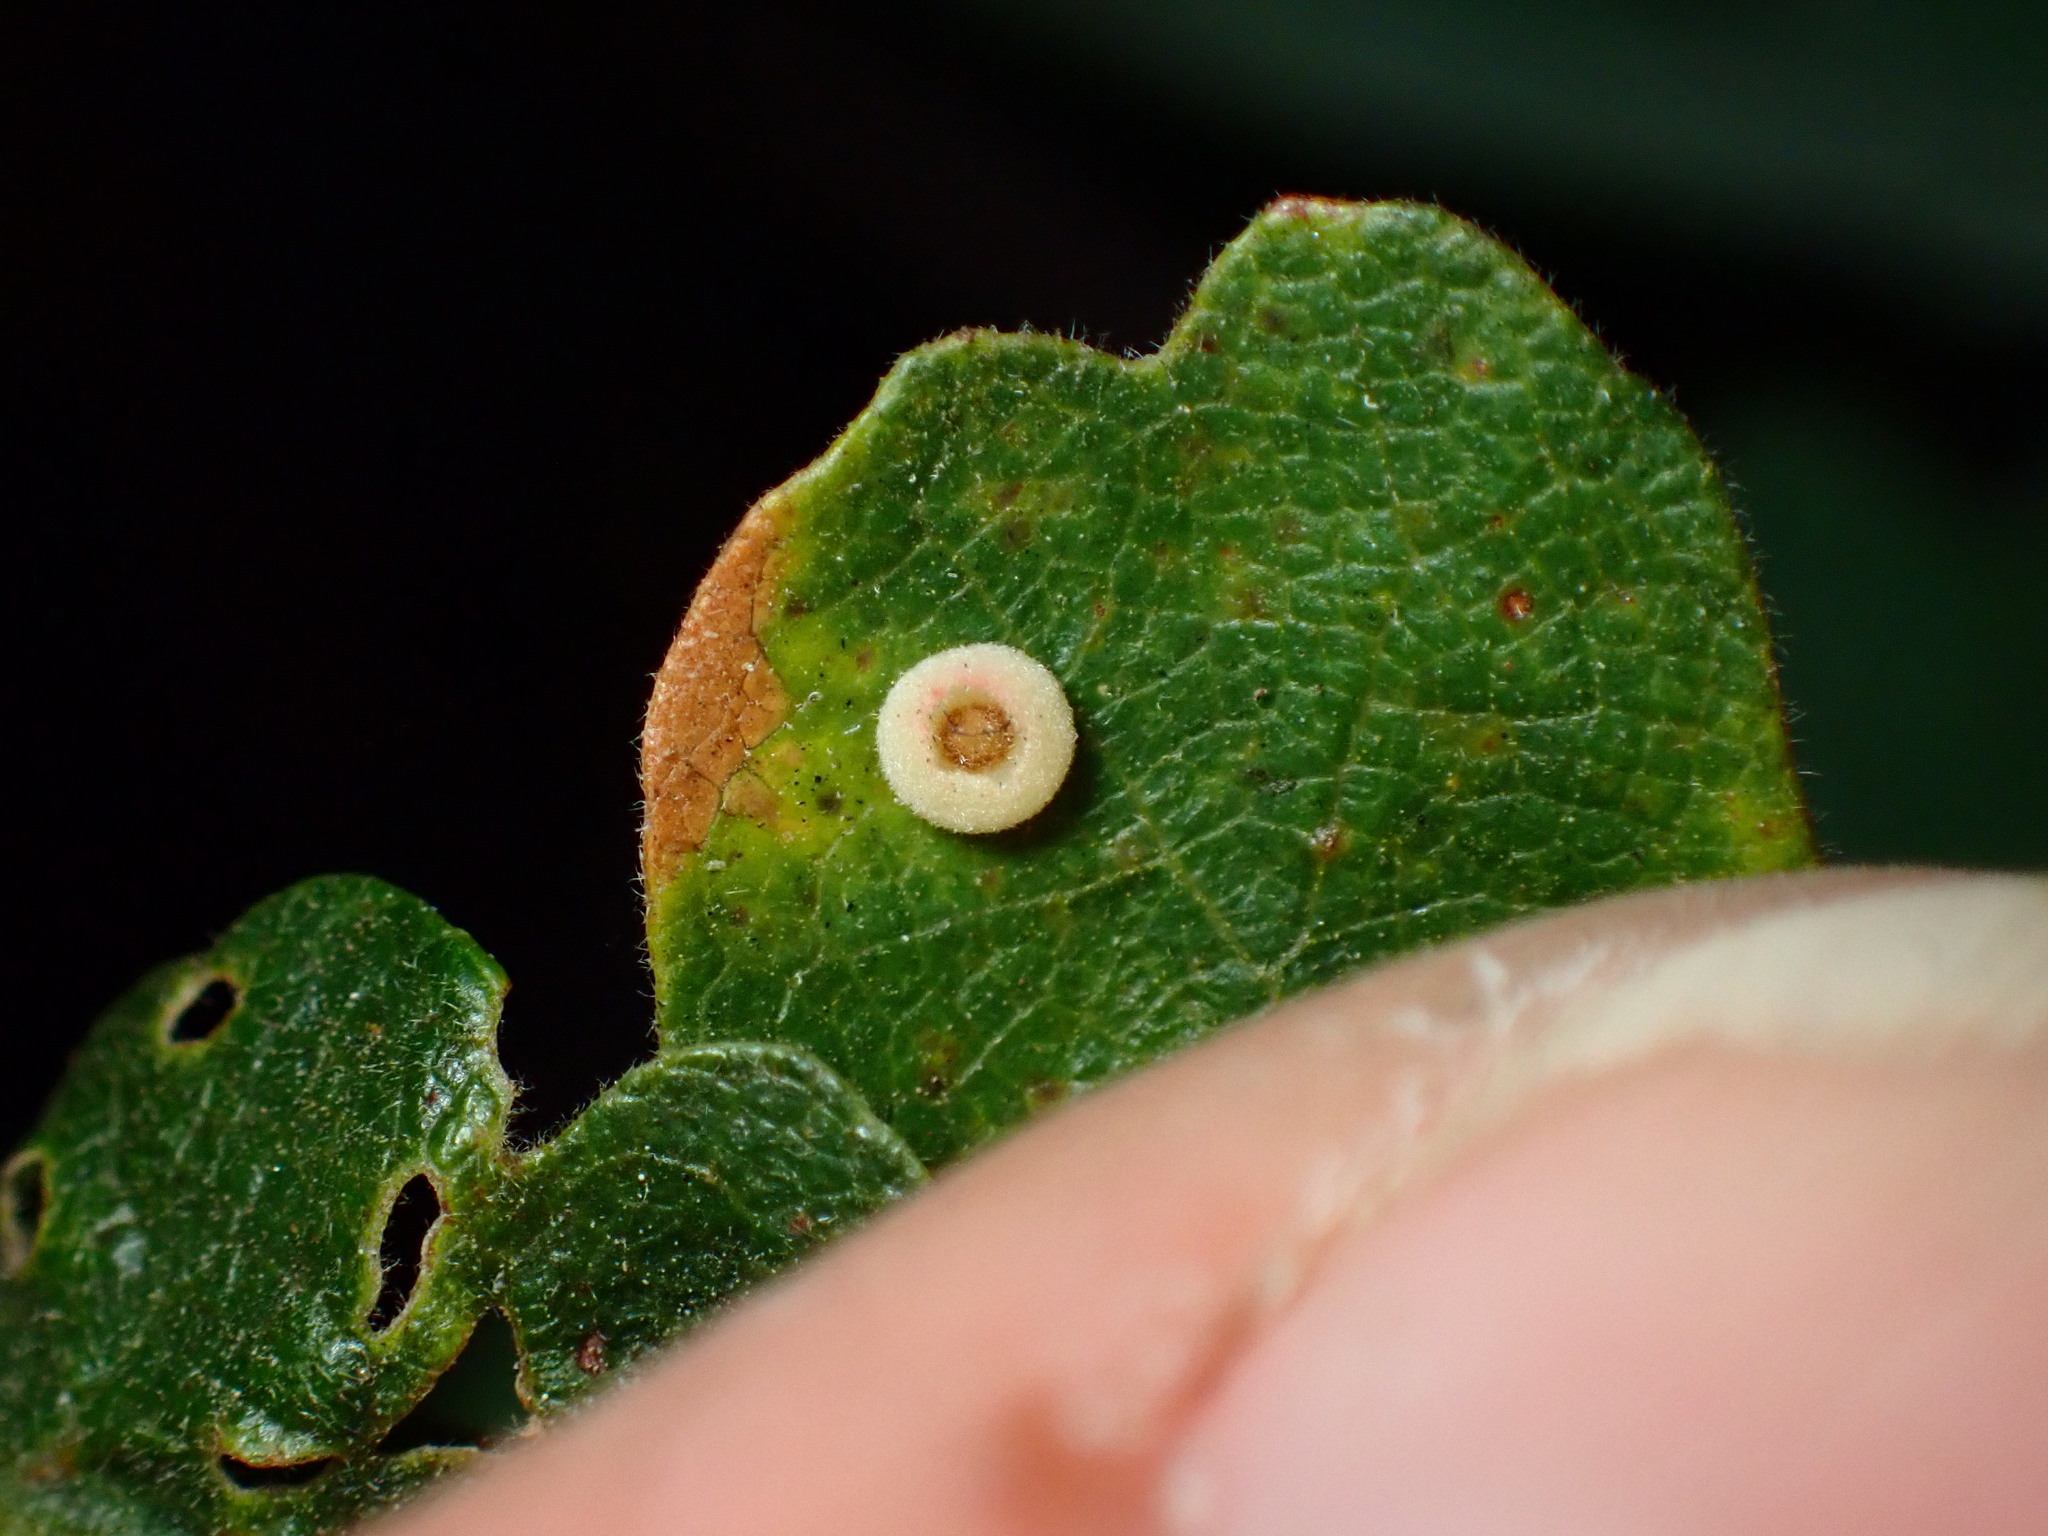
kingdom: Animalia
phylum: Arthropoda
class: Insecta
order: Hymenoptera
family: Cynipidae
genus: Andricus
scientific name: Andricus
